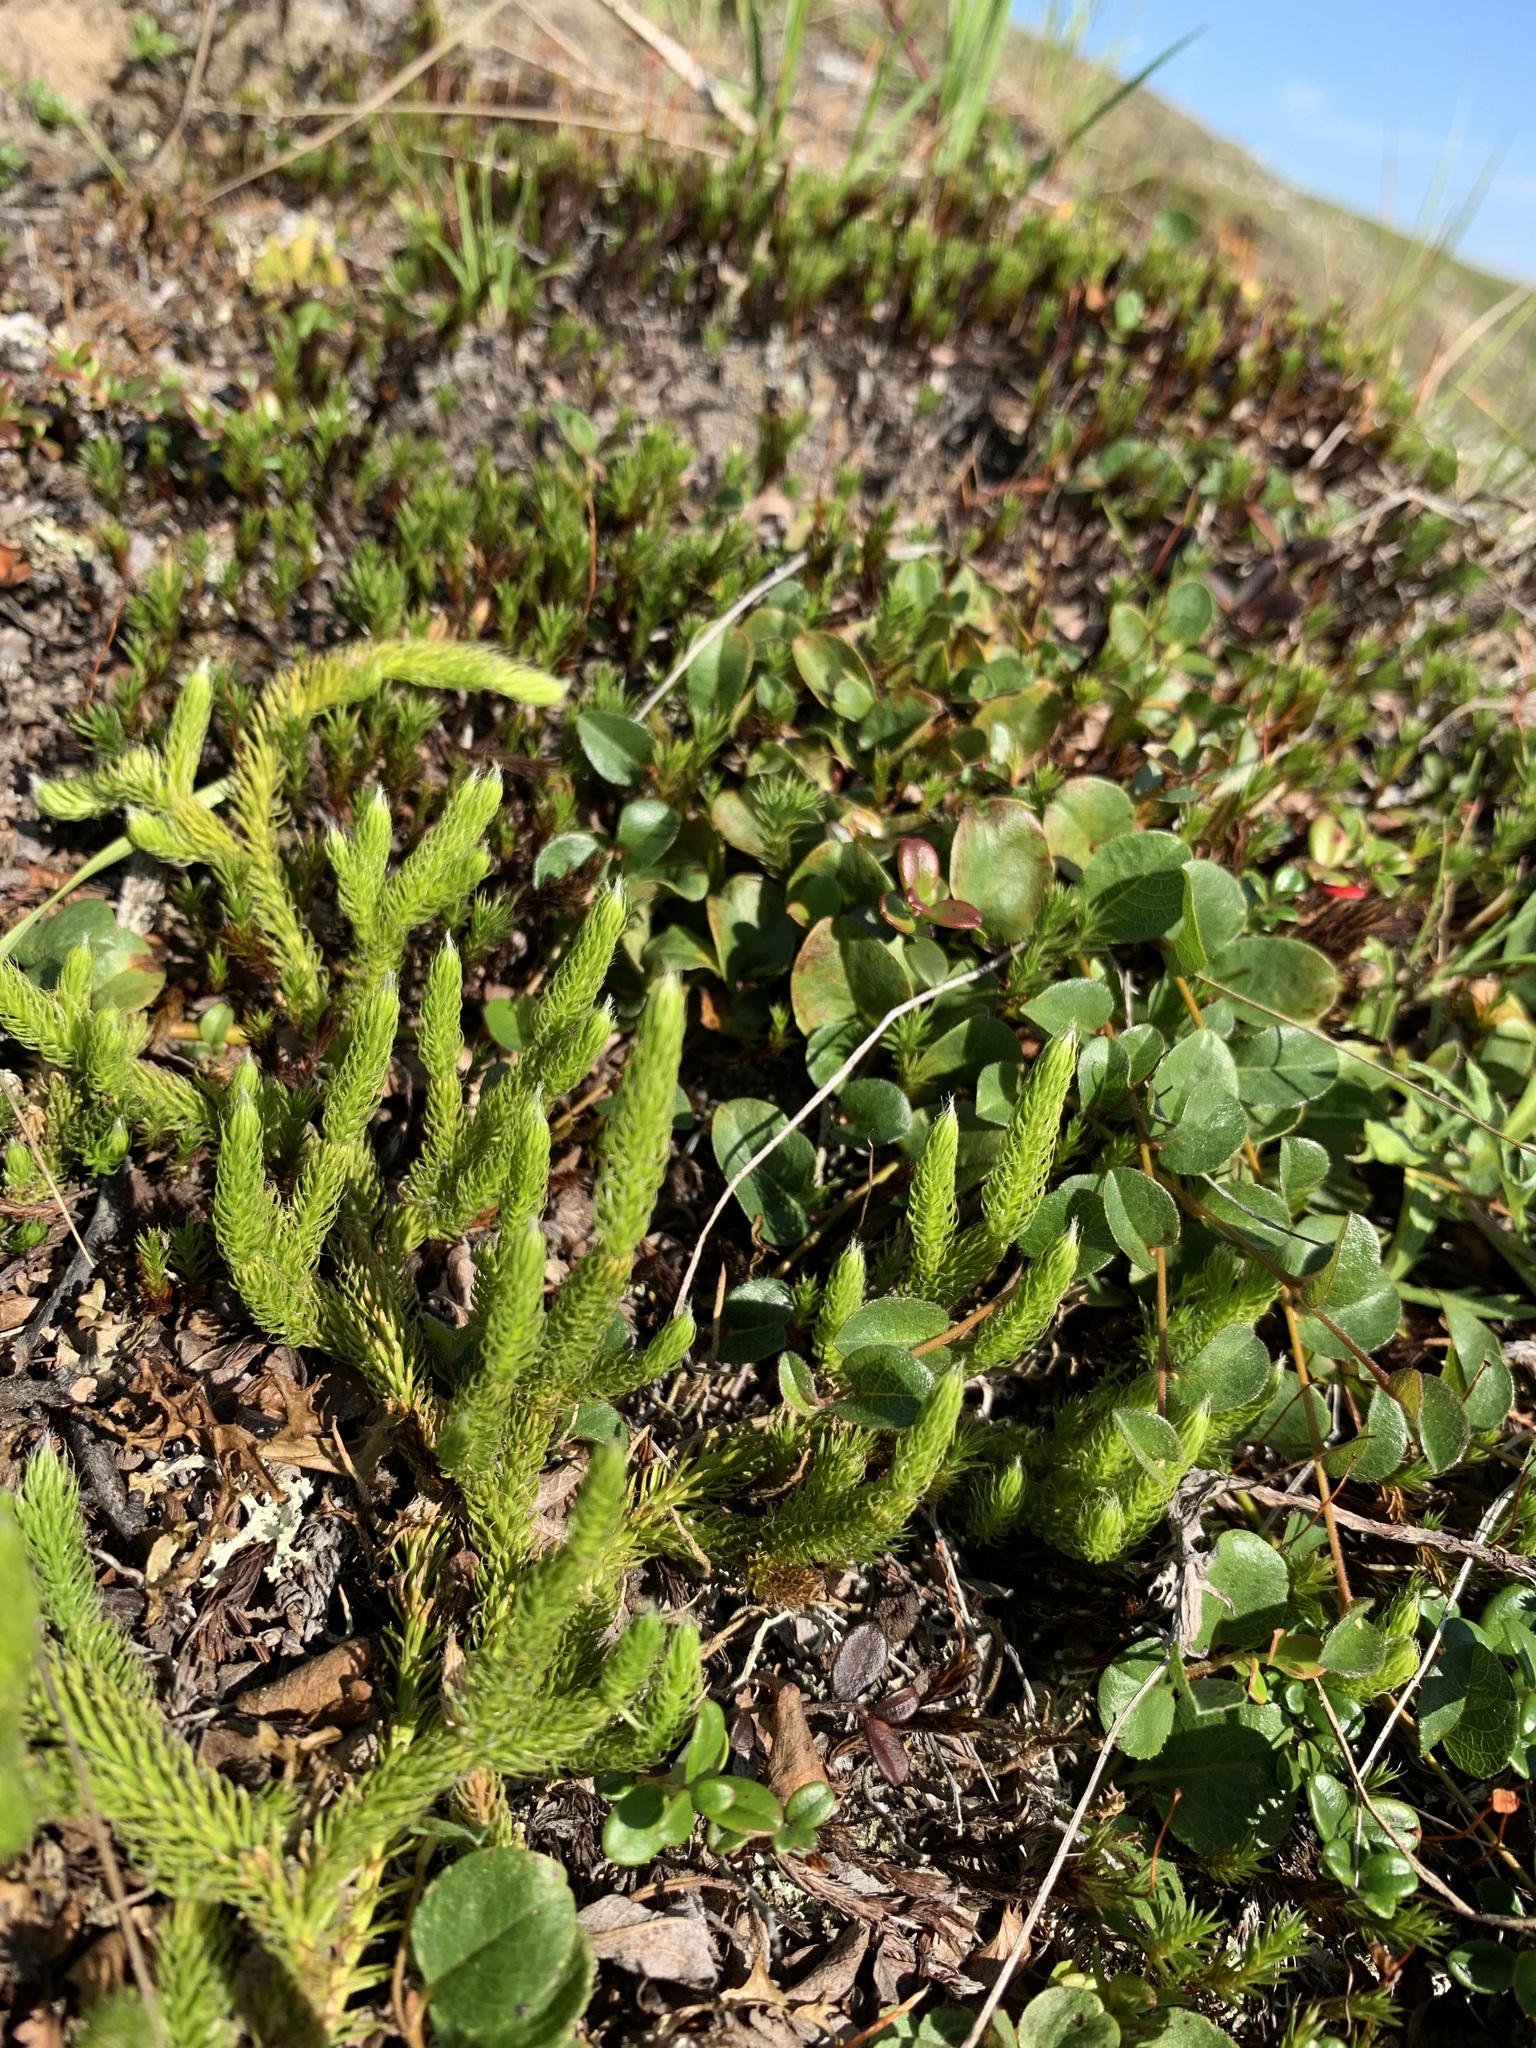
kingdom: Plantae
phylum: Tracheophyta
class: Lycopodiopsida
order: Lycopodiales
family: Lycopodiaceae
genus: Lycopodium
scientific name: Lycopodium lagopus
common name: One-cone clubmoss
